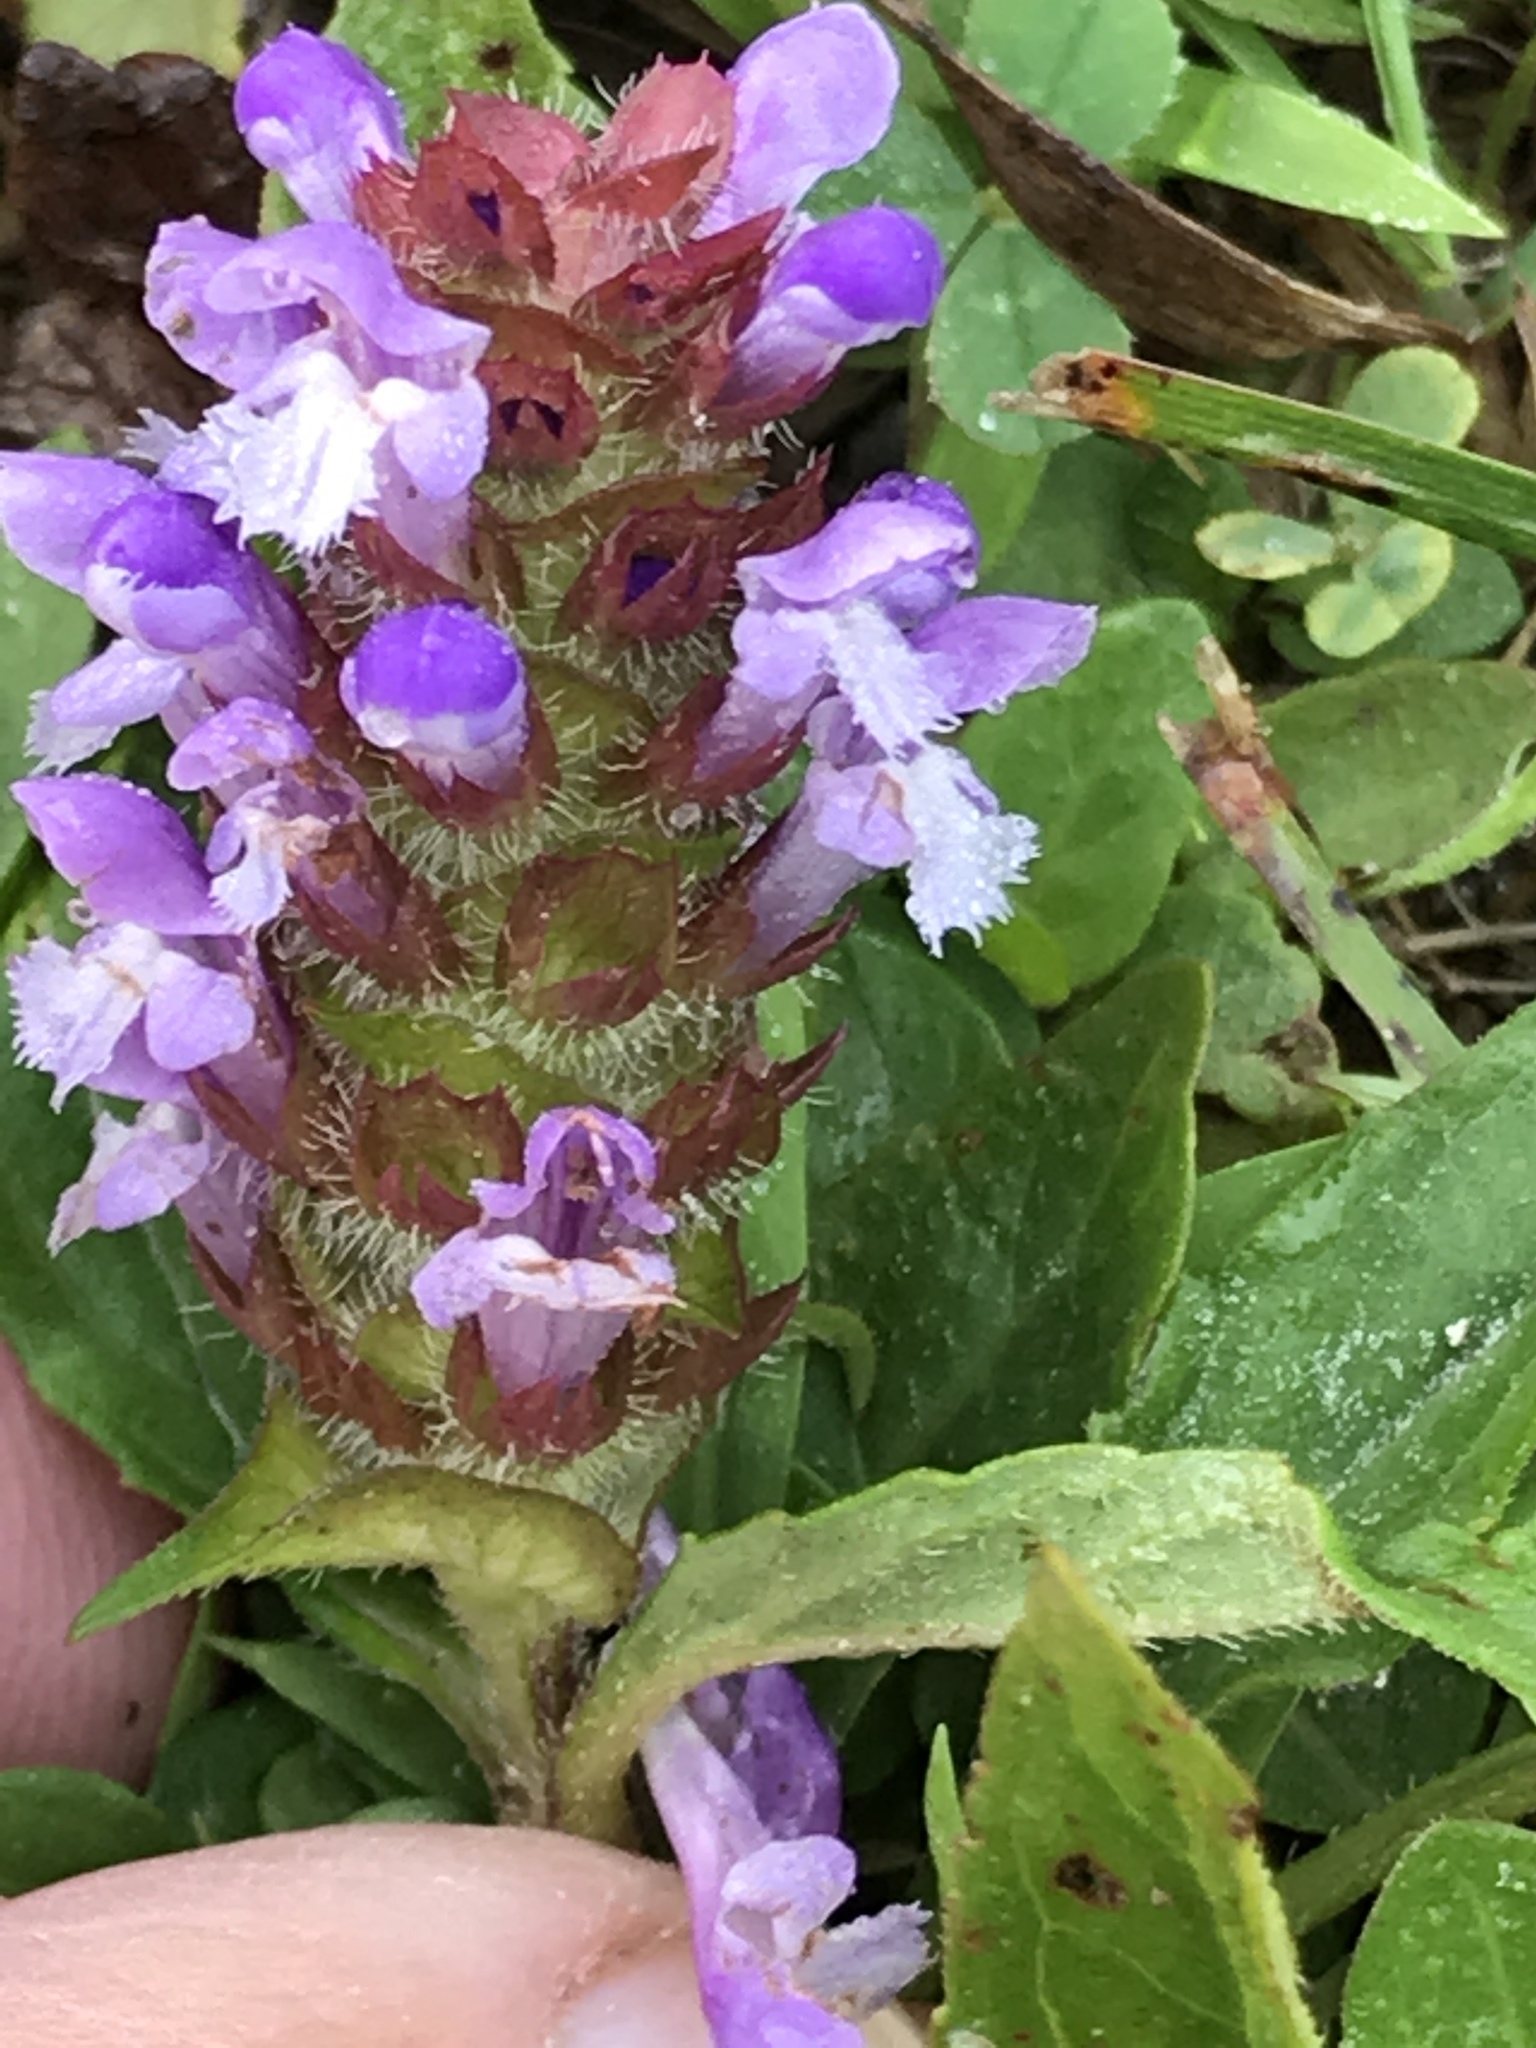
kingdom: Plantae
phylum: Tracheophyta
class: Magnoliopsida
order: Lamiales
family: Lamiaceae
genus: Prunella
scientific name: Prunella vulgaris
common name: Heal-all
